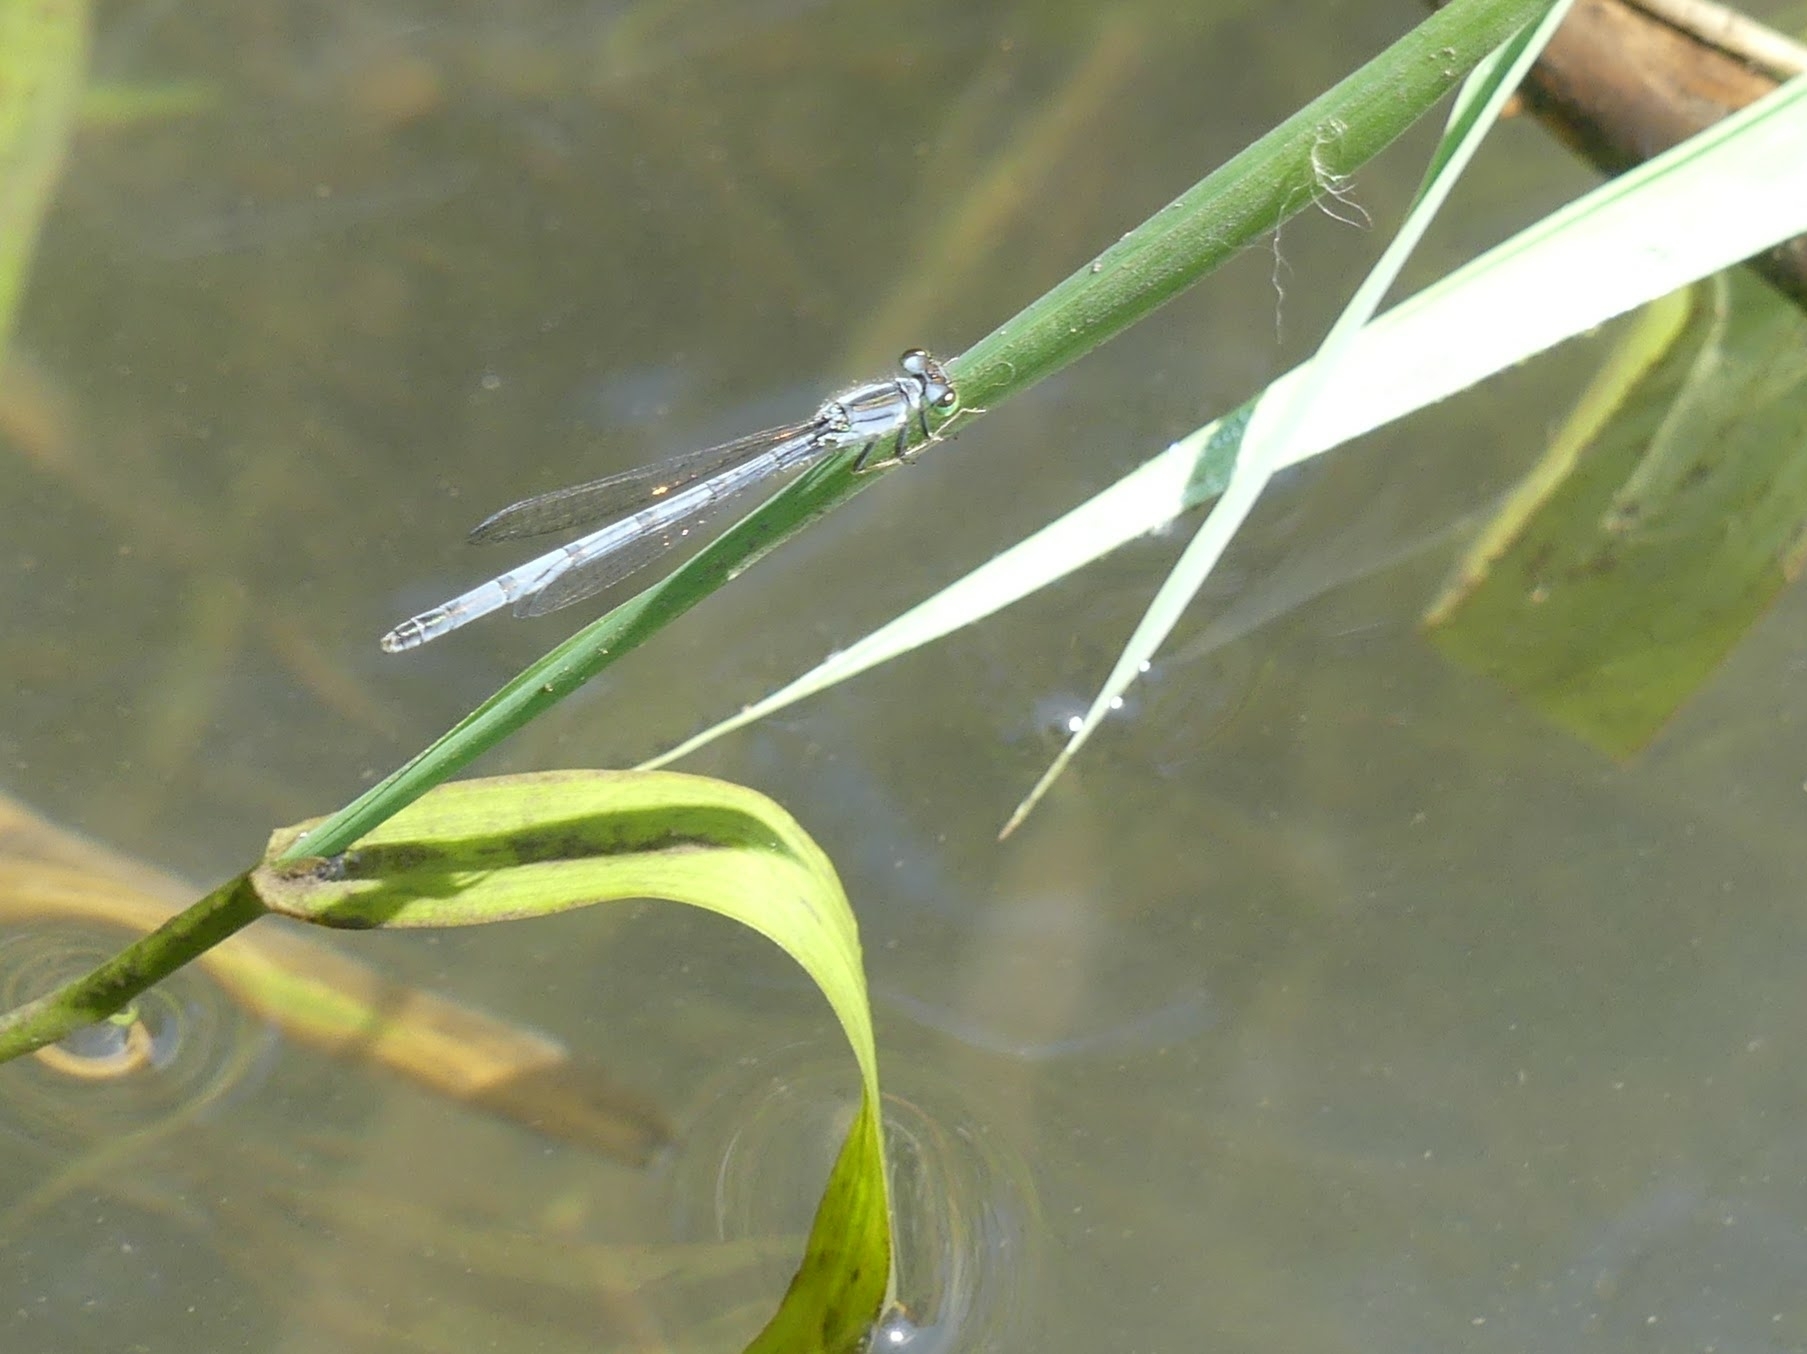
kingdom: Animalia
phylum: Arthropoda
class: Insecta
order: Odonata
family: Coenagrionidae
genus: Ischnura
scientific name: Ischnura verticalis
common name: Eastern forktail
